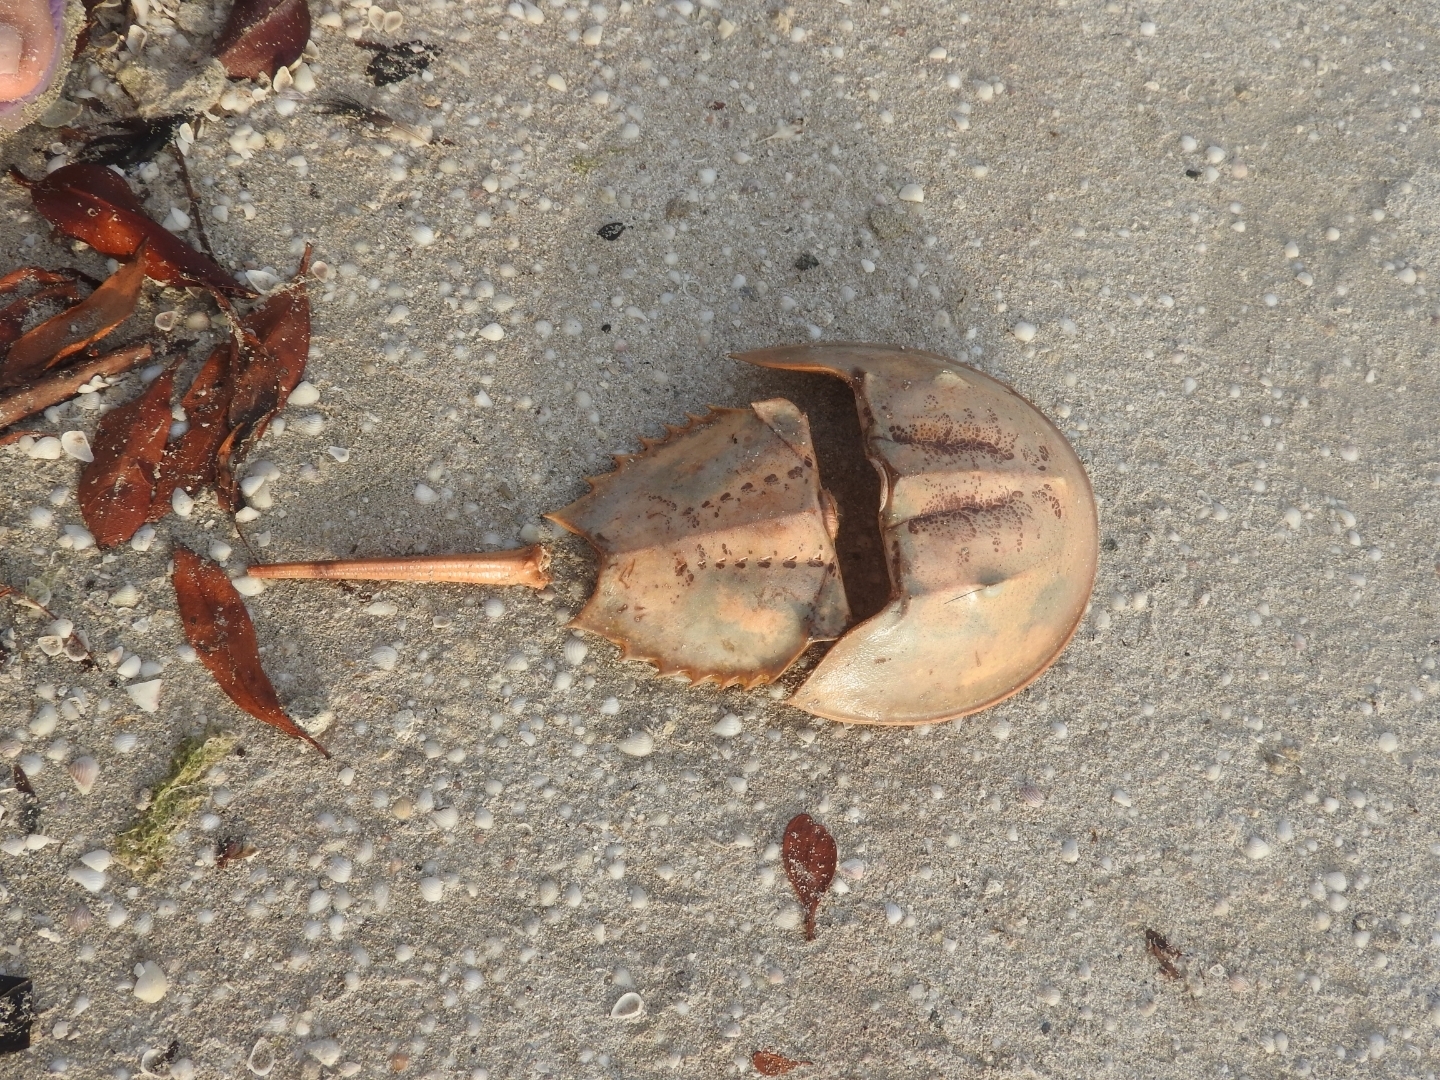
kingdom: Animalia
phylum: Arthropoda
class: Merostomata
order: Xiphosurida
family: Limulidae
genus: Limulus
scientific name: Limulus polyphemus
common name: Horseshoe crab
